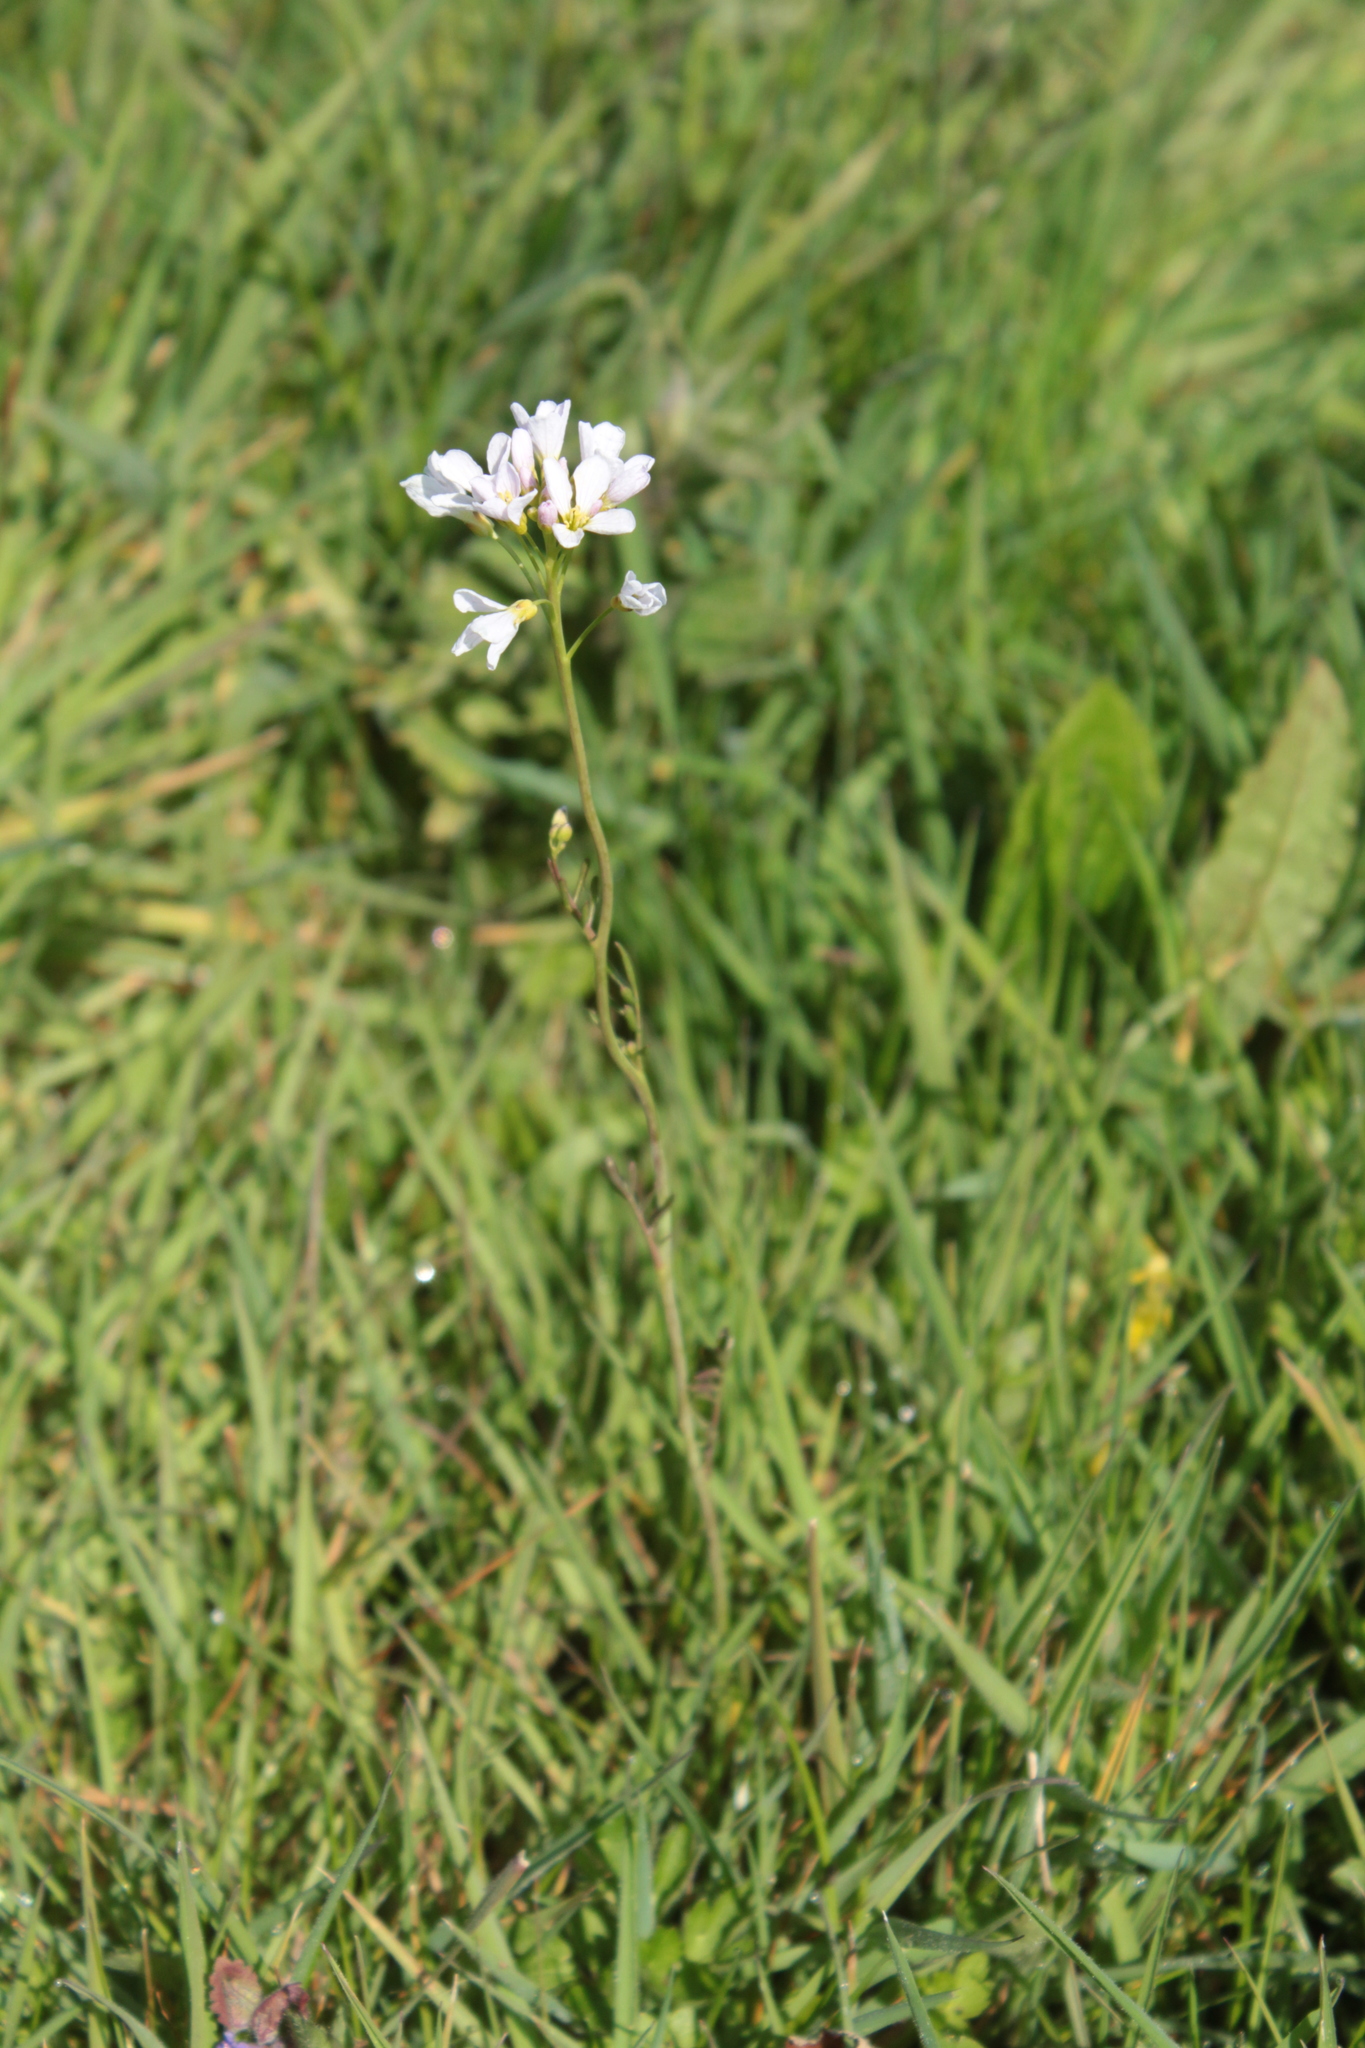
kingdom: Plantae
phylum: Tracheophyta
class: Magnoliopsida
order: Brassicales
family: Brassicaceae
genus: Cardamine
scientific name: Cardamine pratensis
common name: Cuckoo flower
